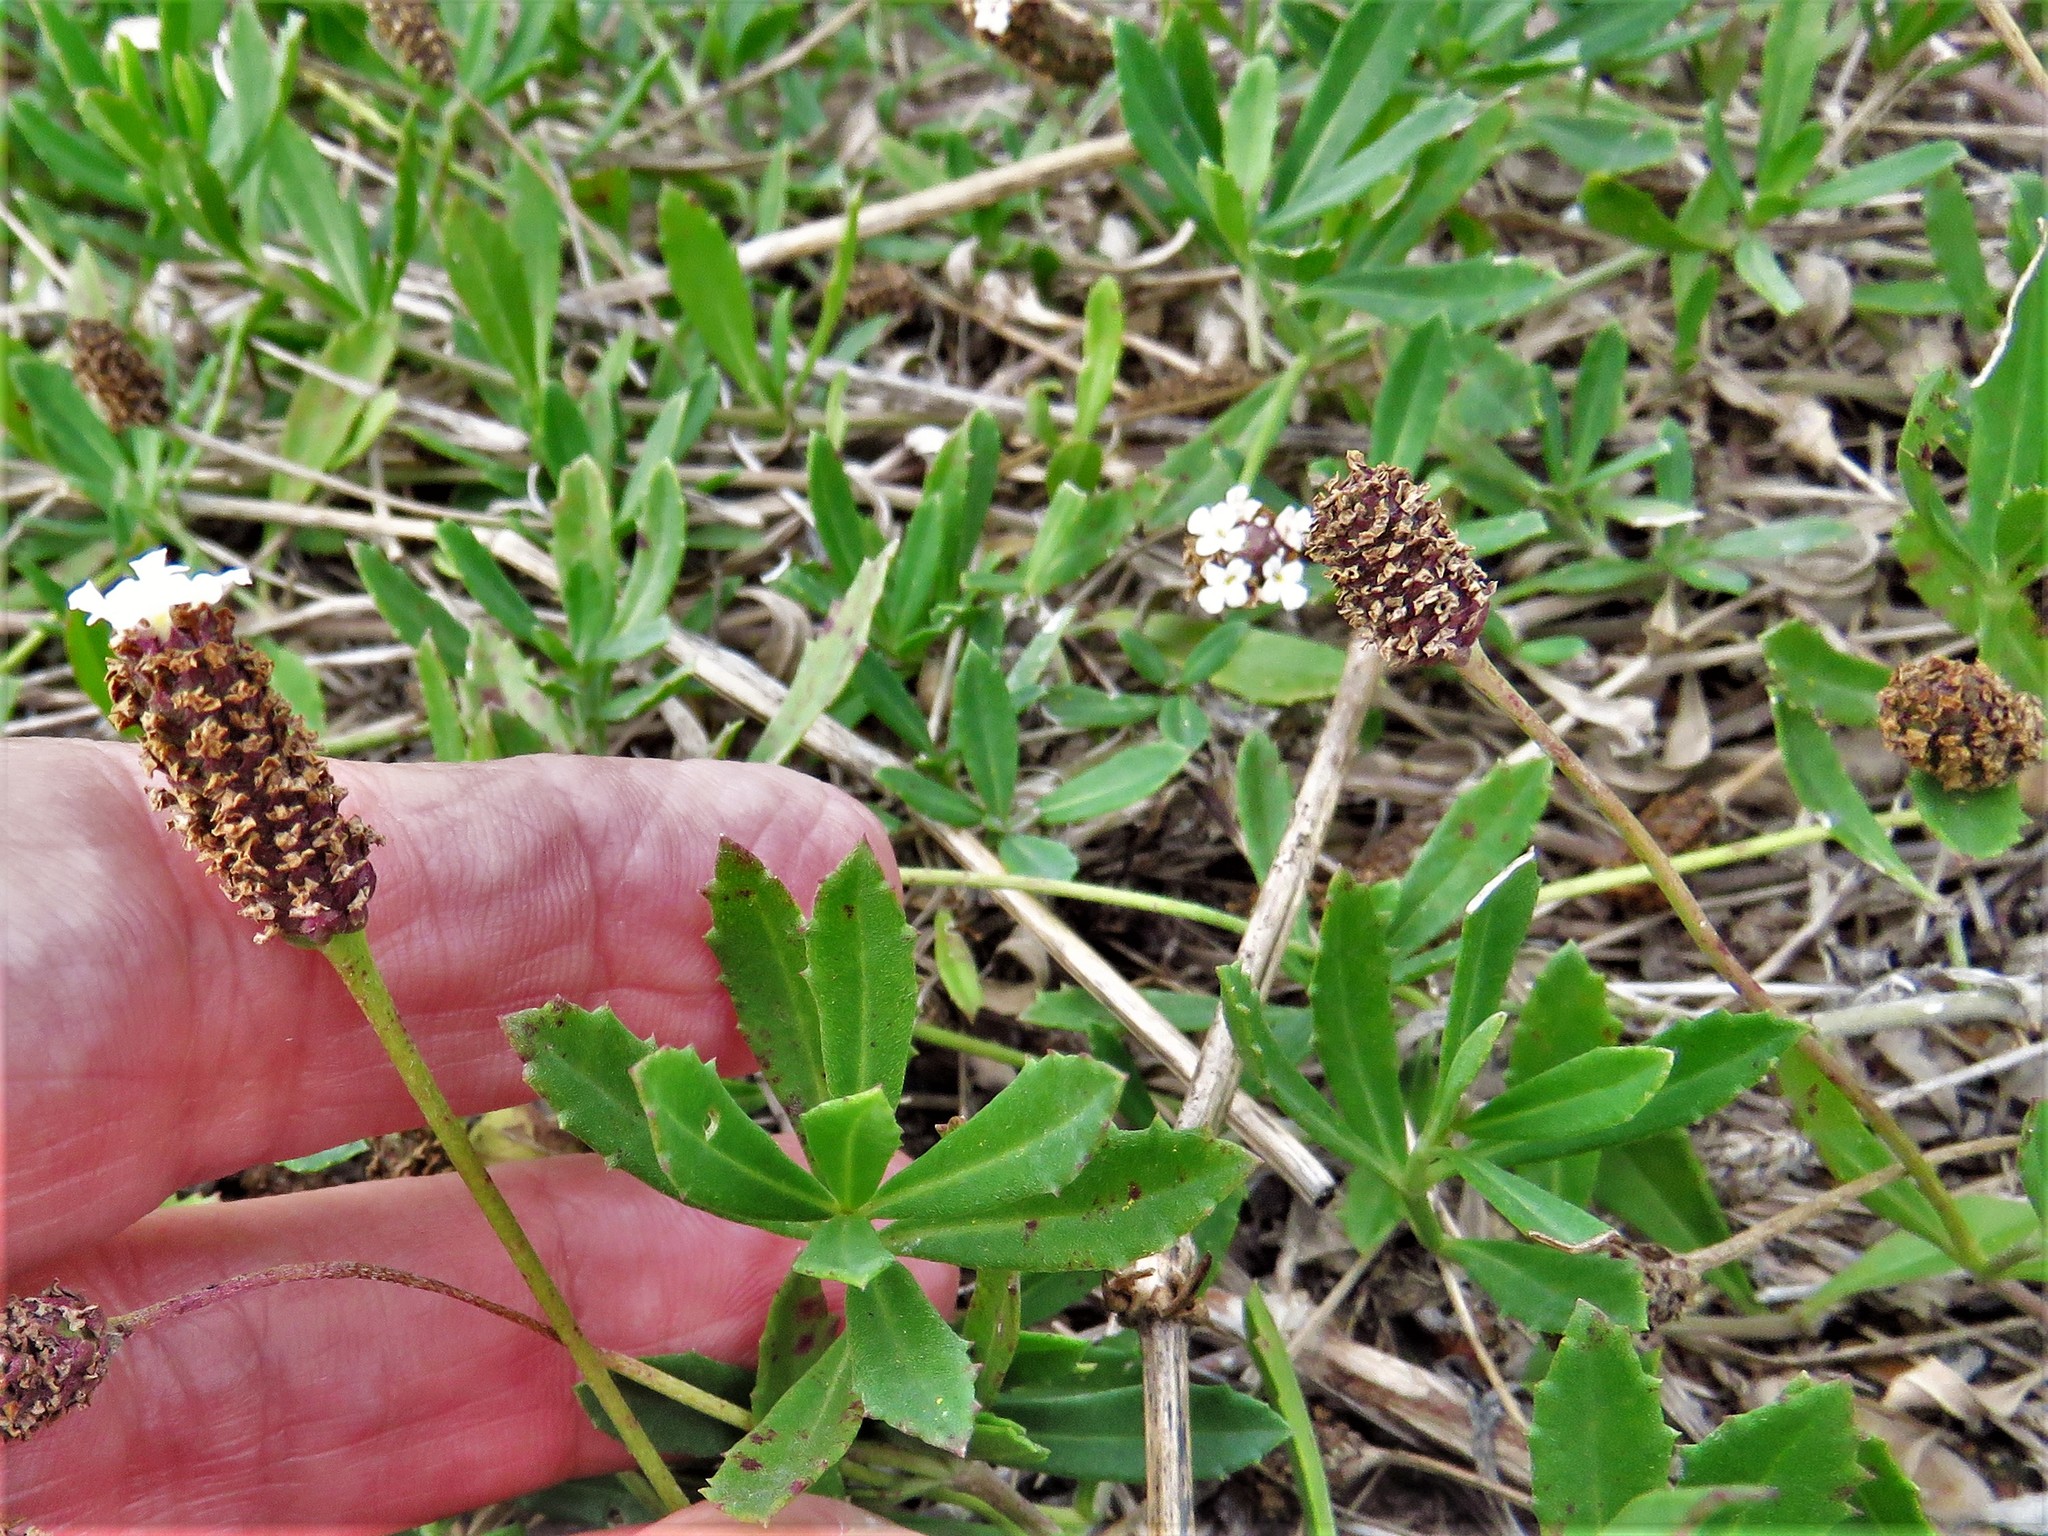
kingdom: Plantae
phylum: Tracheophyta
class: Magnoliopsida
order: Lamiales
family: Verbenaceae
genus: Phyla
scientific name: Phyla nodiflora
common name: Frogfruit
